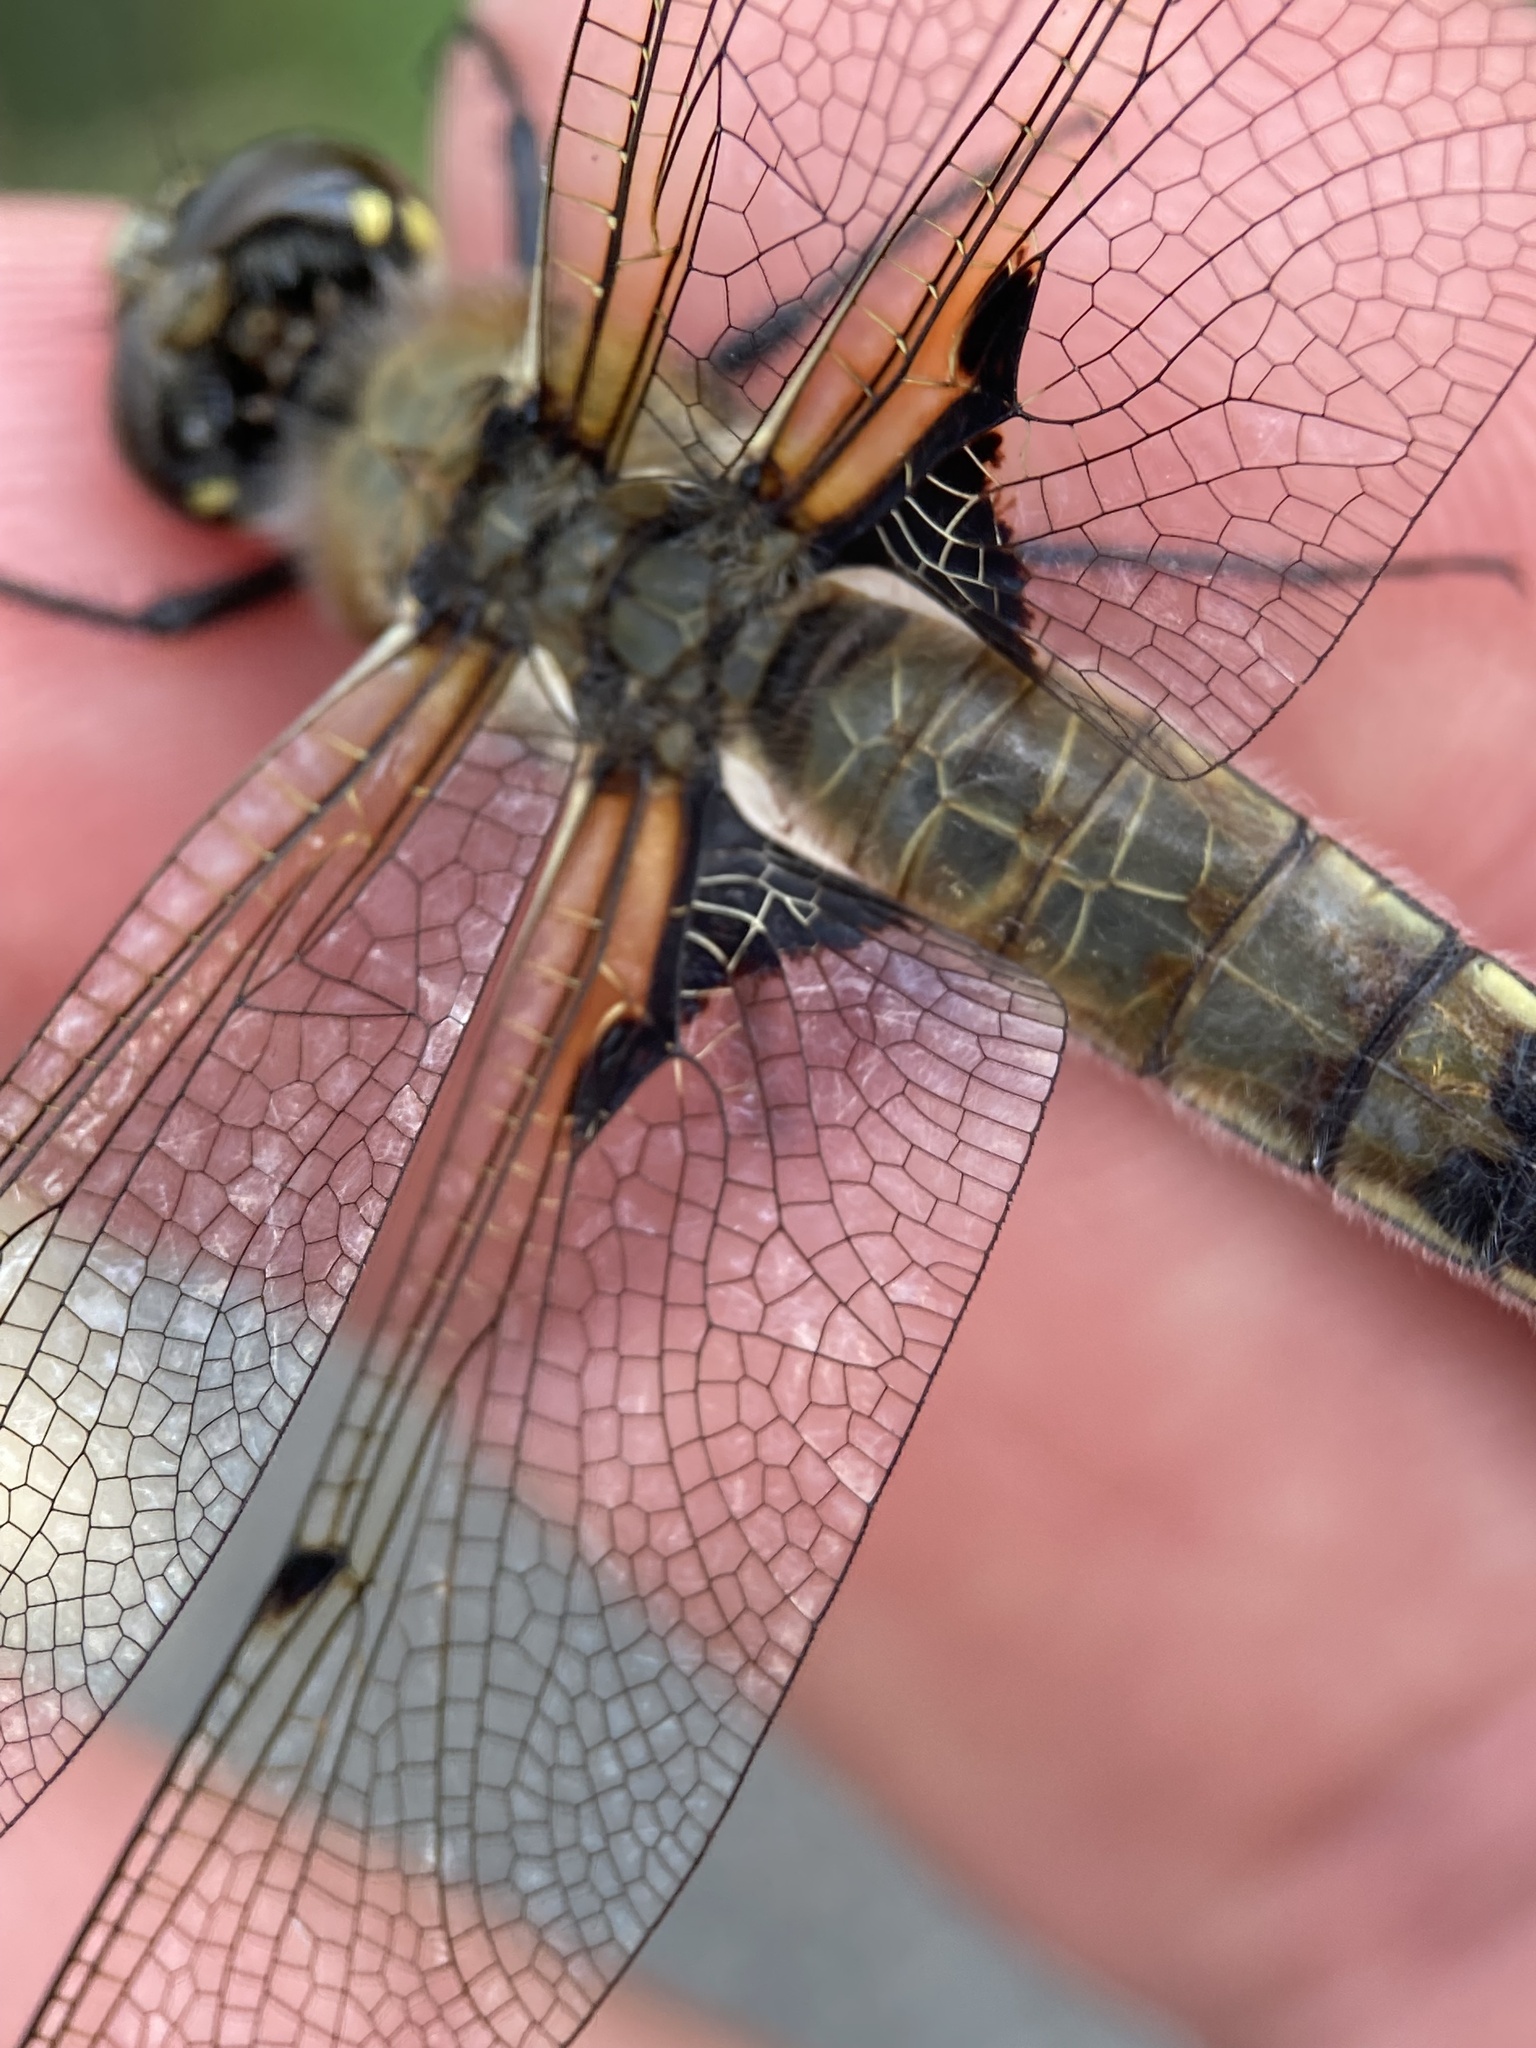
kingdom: Animalia
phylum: Arthropoda
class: Insecta
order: Odonata
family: Libellulidae
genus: Libellula
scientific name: Libellula quadrimaculata
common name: Four-spotted chaser
